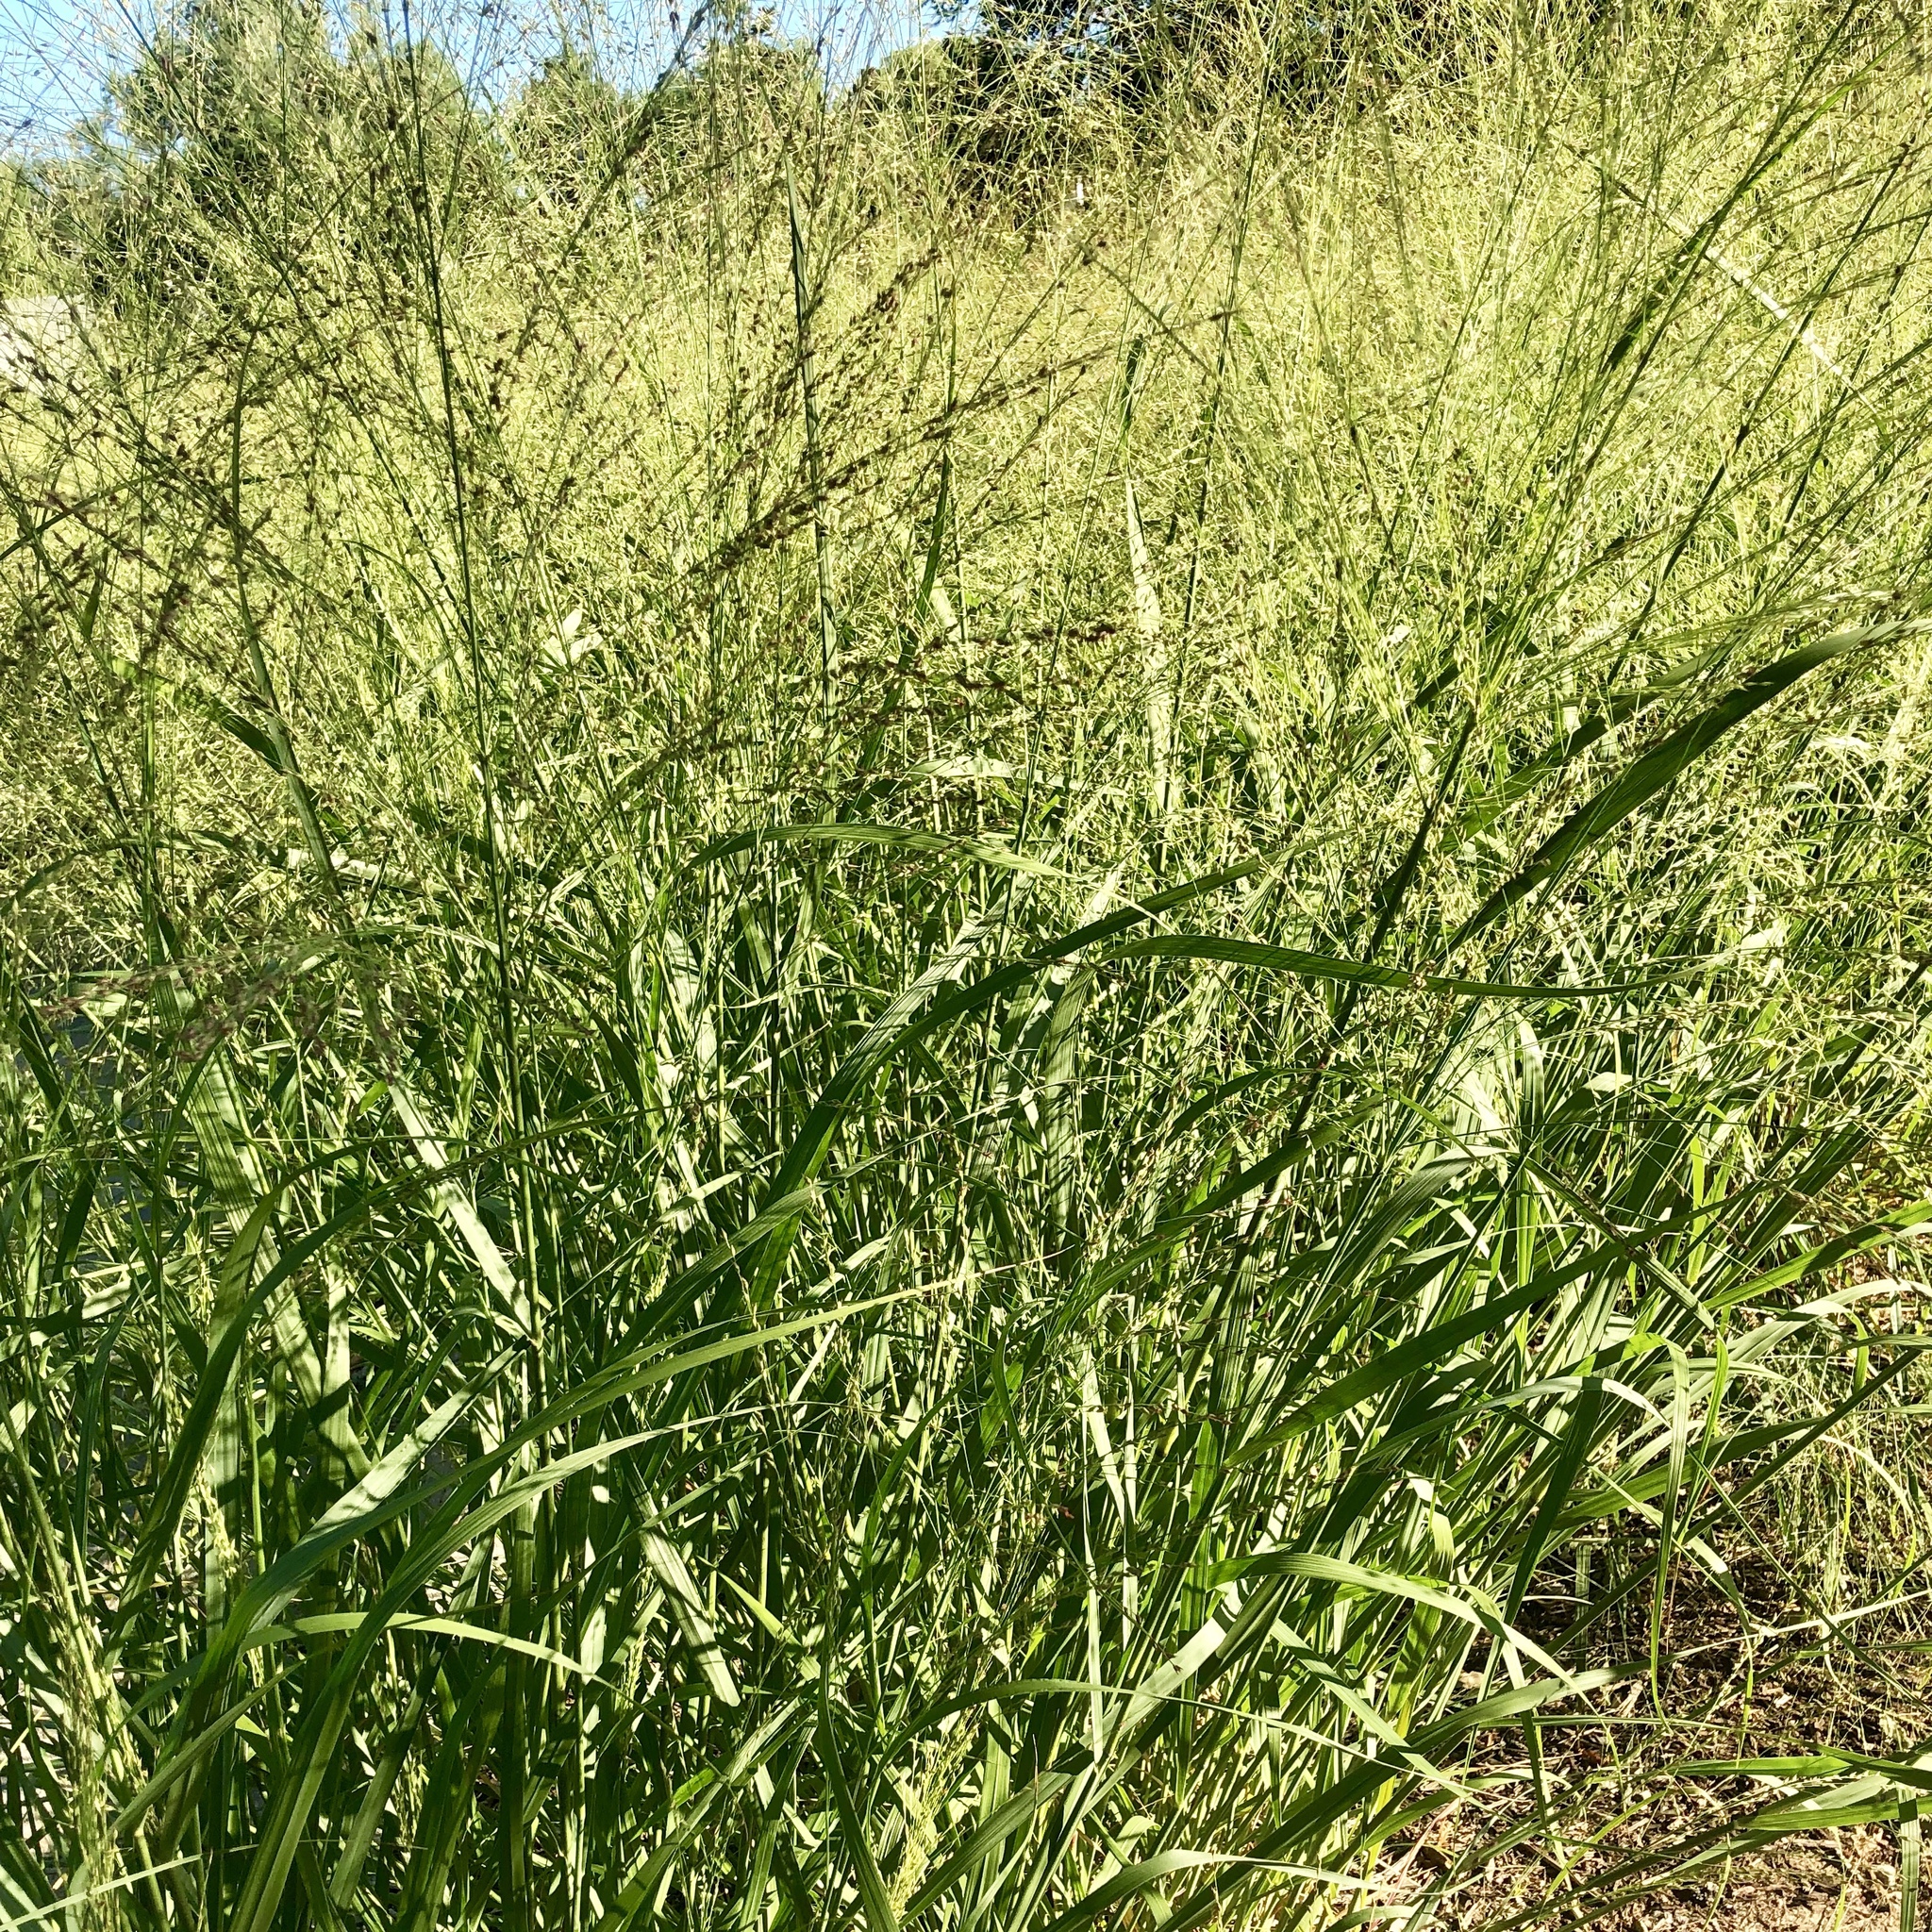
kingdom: Plantae
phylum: Tracheophyta
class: Liliopsida
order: Poales
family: Poaceae
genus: Panicum
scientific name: Panicum virgatum
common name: Switchgrass
